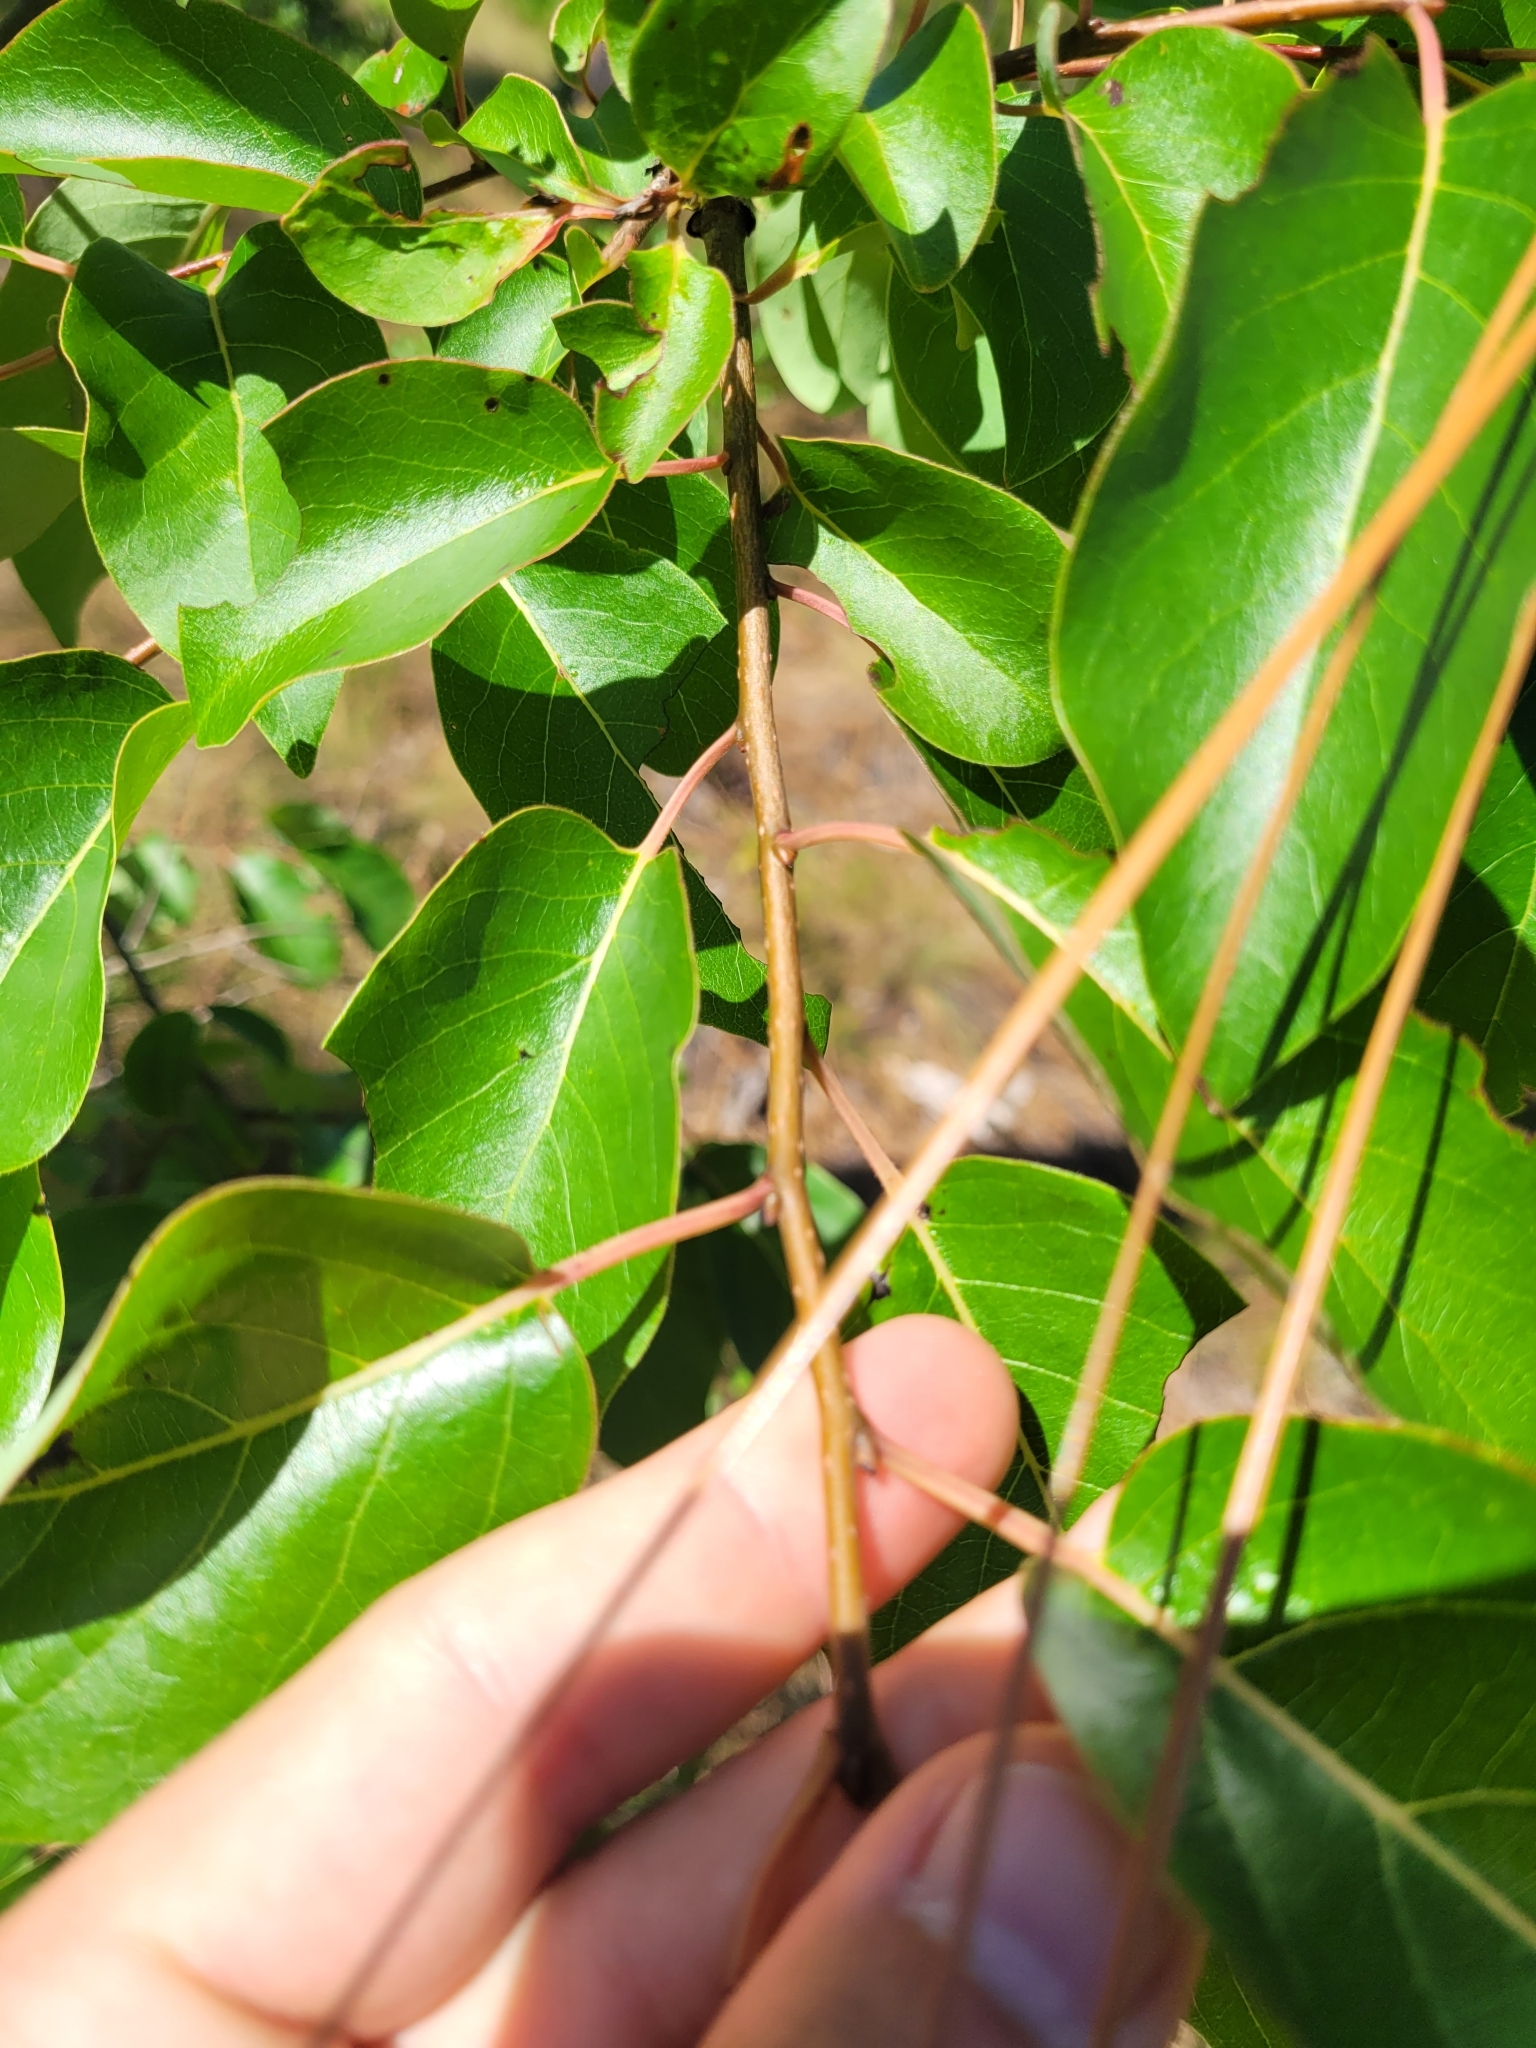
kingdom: Plantae
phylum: Tracheophyta
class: Magnoliopsida
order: Ericales
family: Ebenaceae
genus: Diospyros
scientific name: Diospyros virginiana
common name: Persimmon
